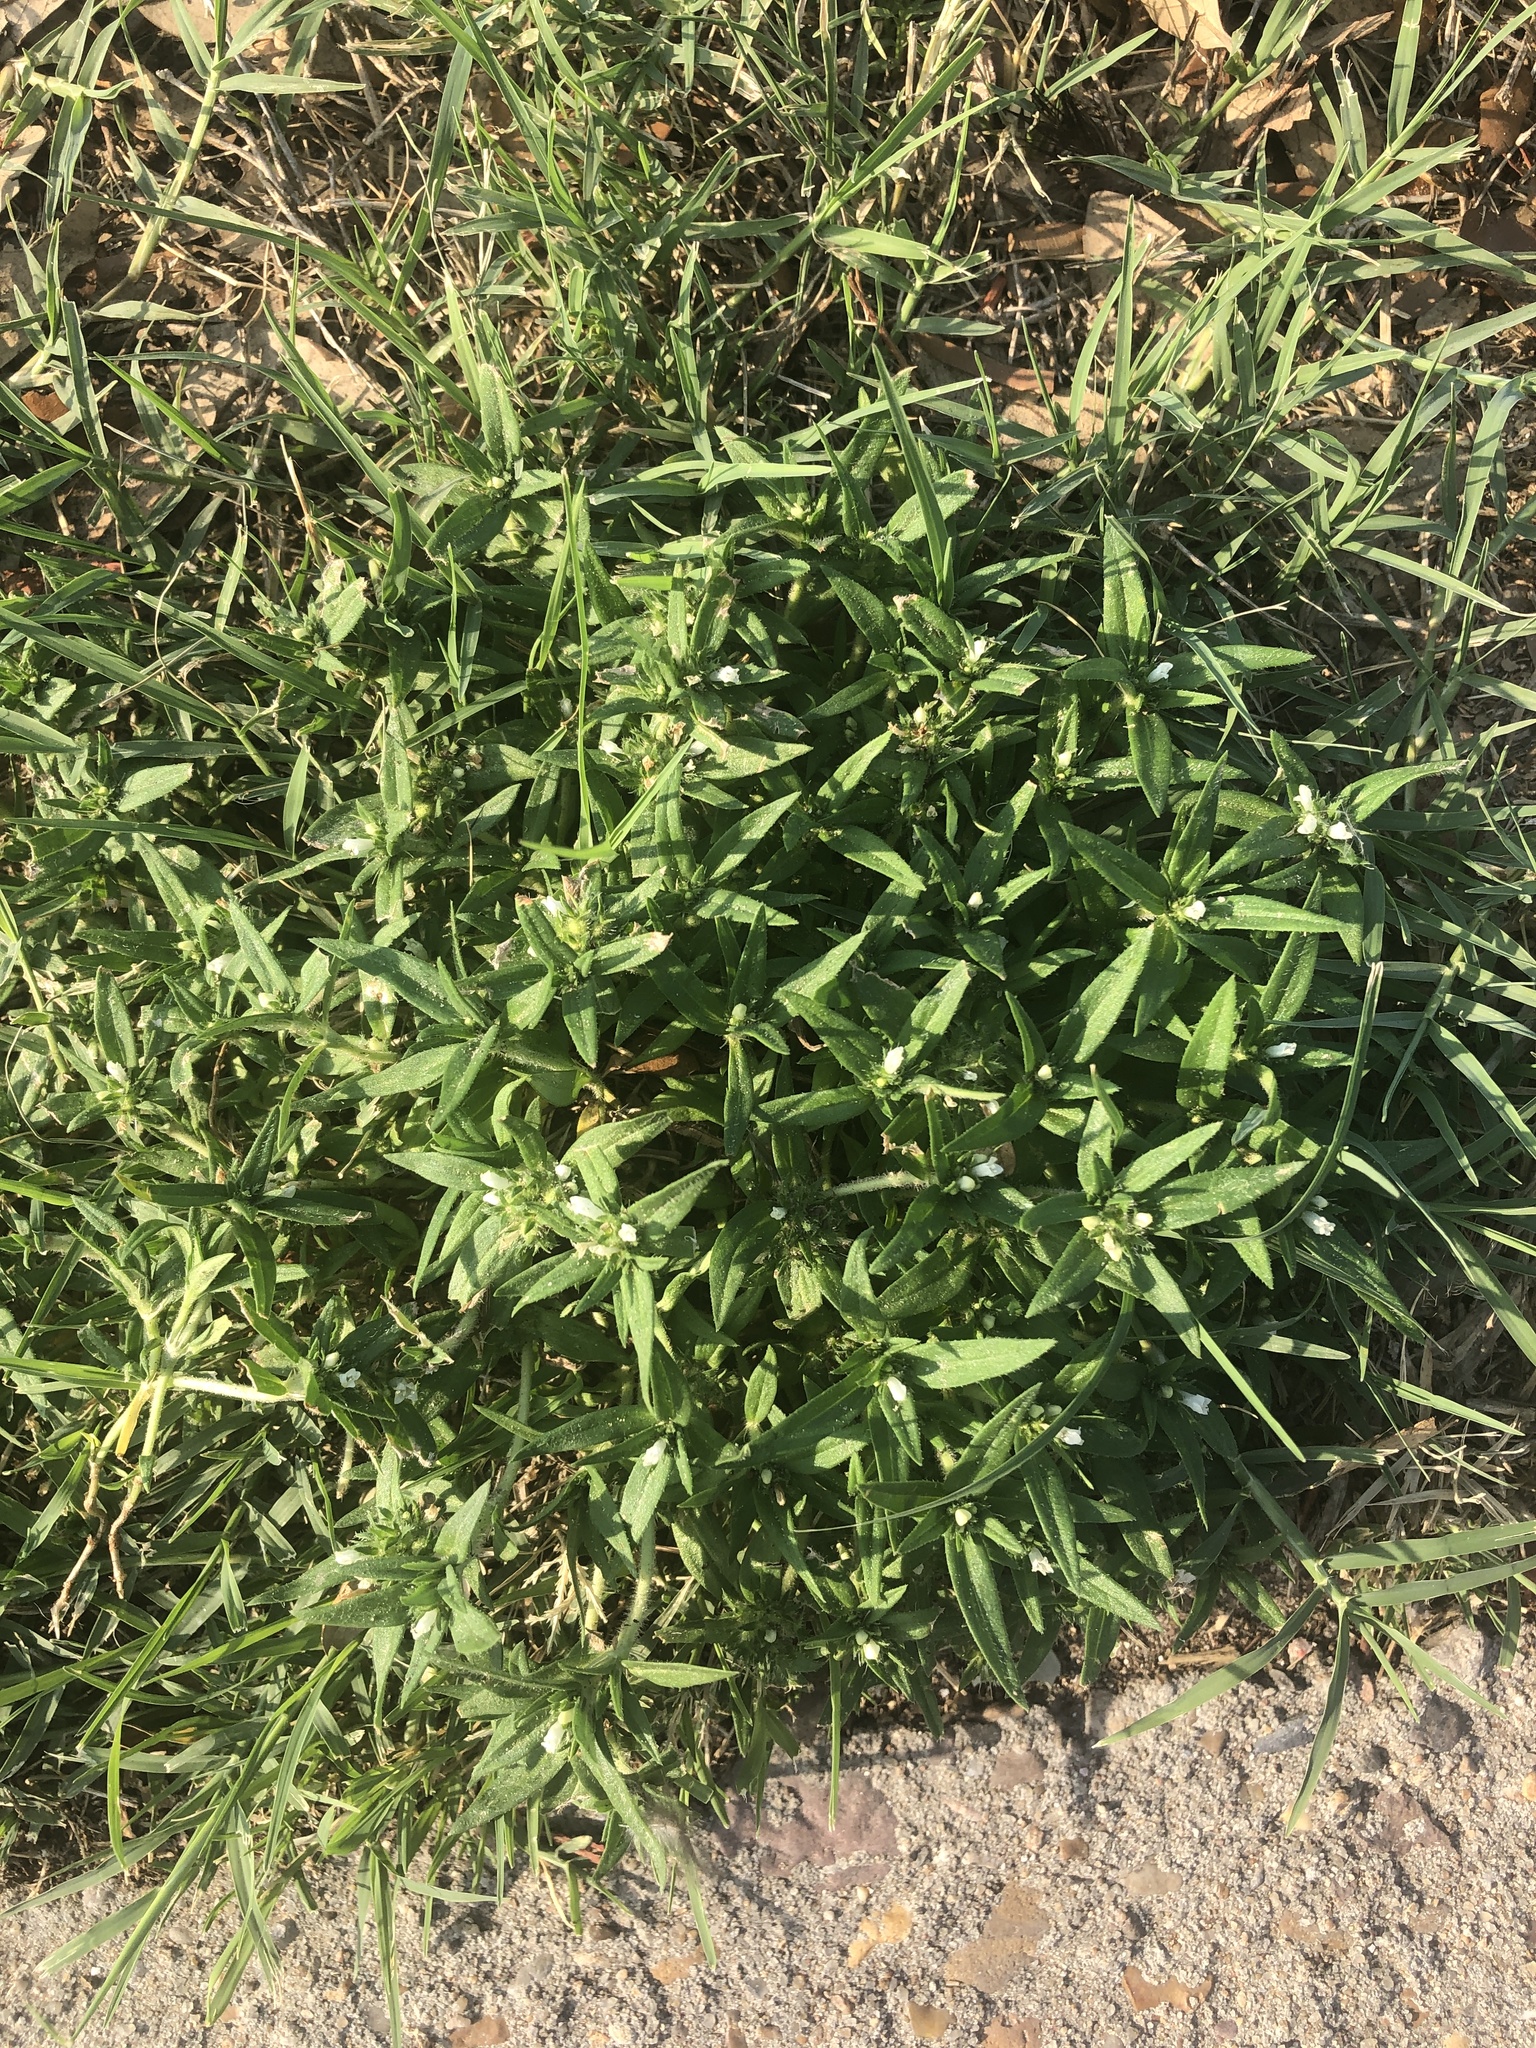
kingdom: Plantae
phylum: Tracheophyta
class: Magnoliopsida
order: Gentianales
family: Rubiaceae
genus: Richardia
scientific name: Richardia tricocca
